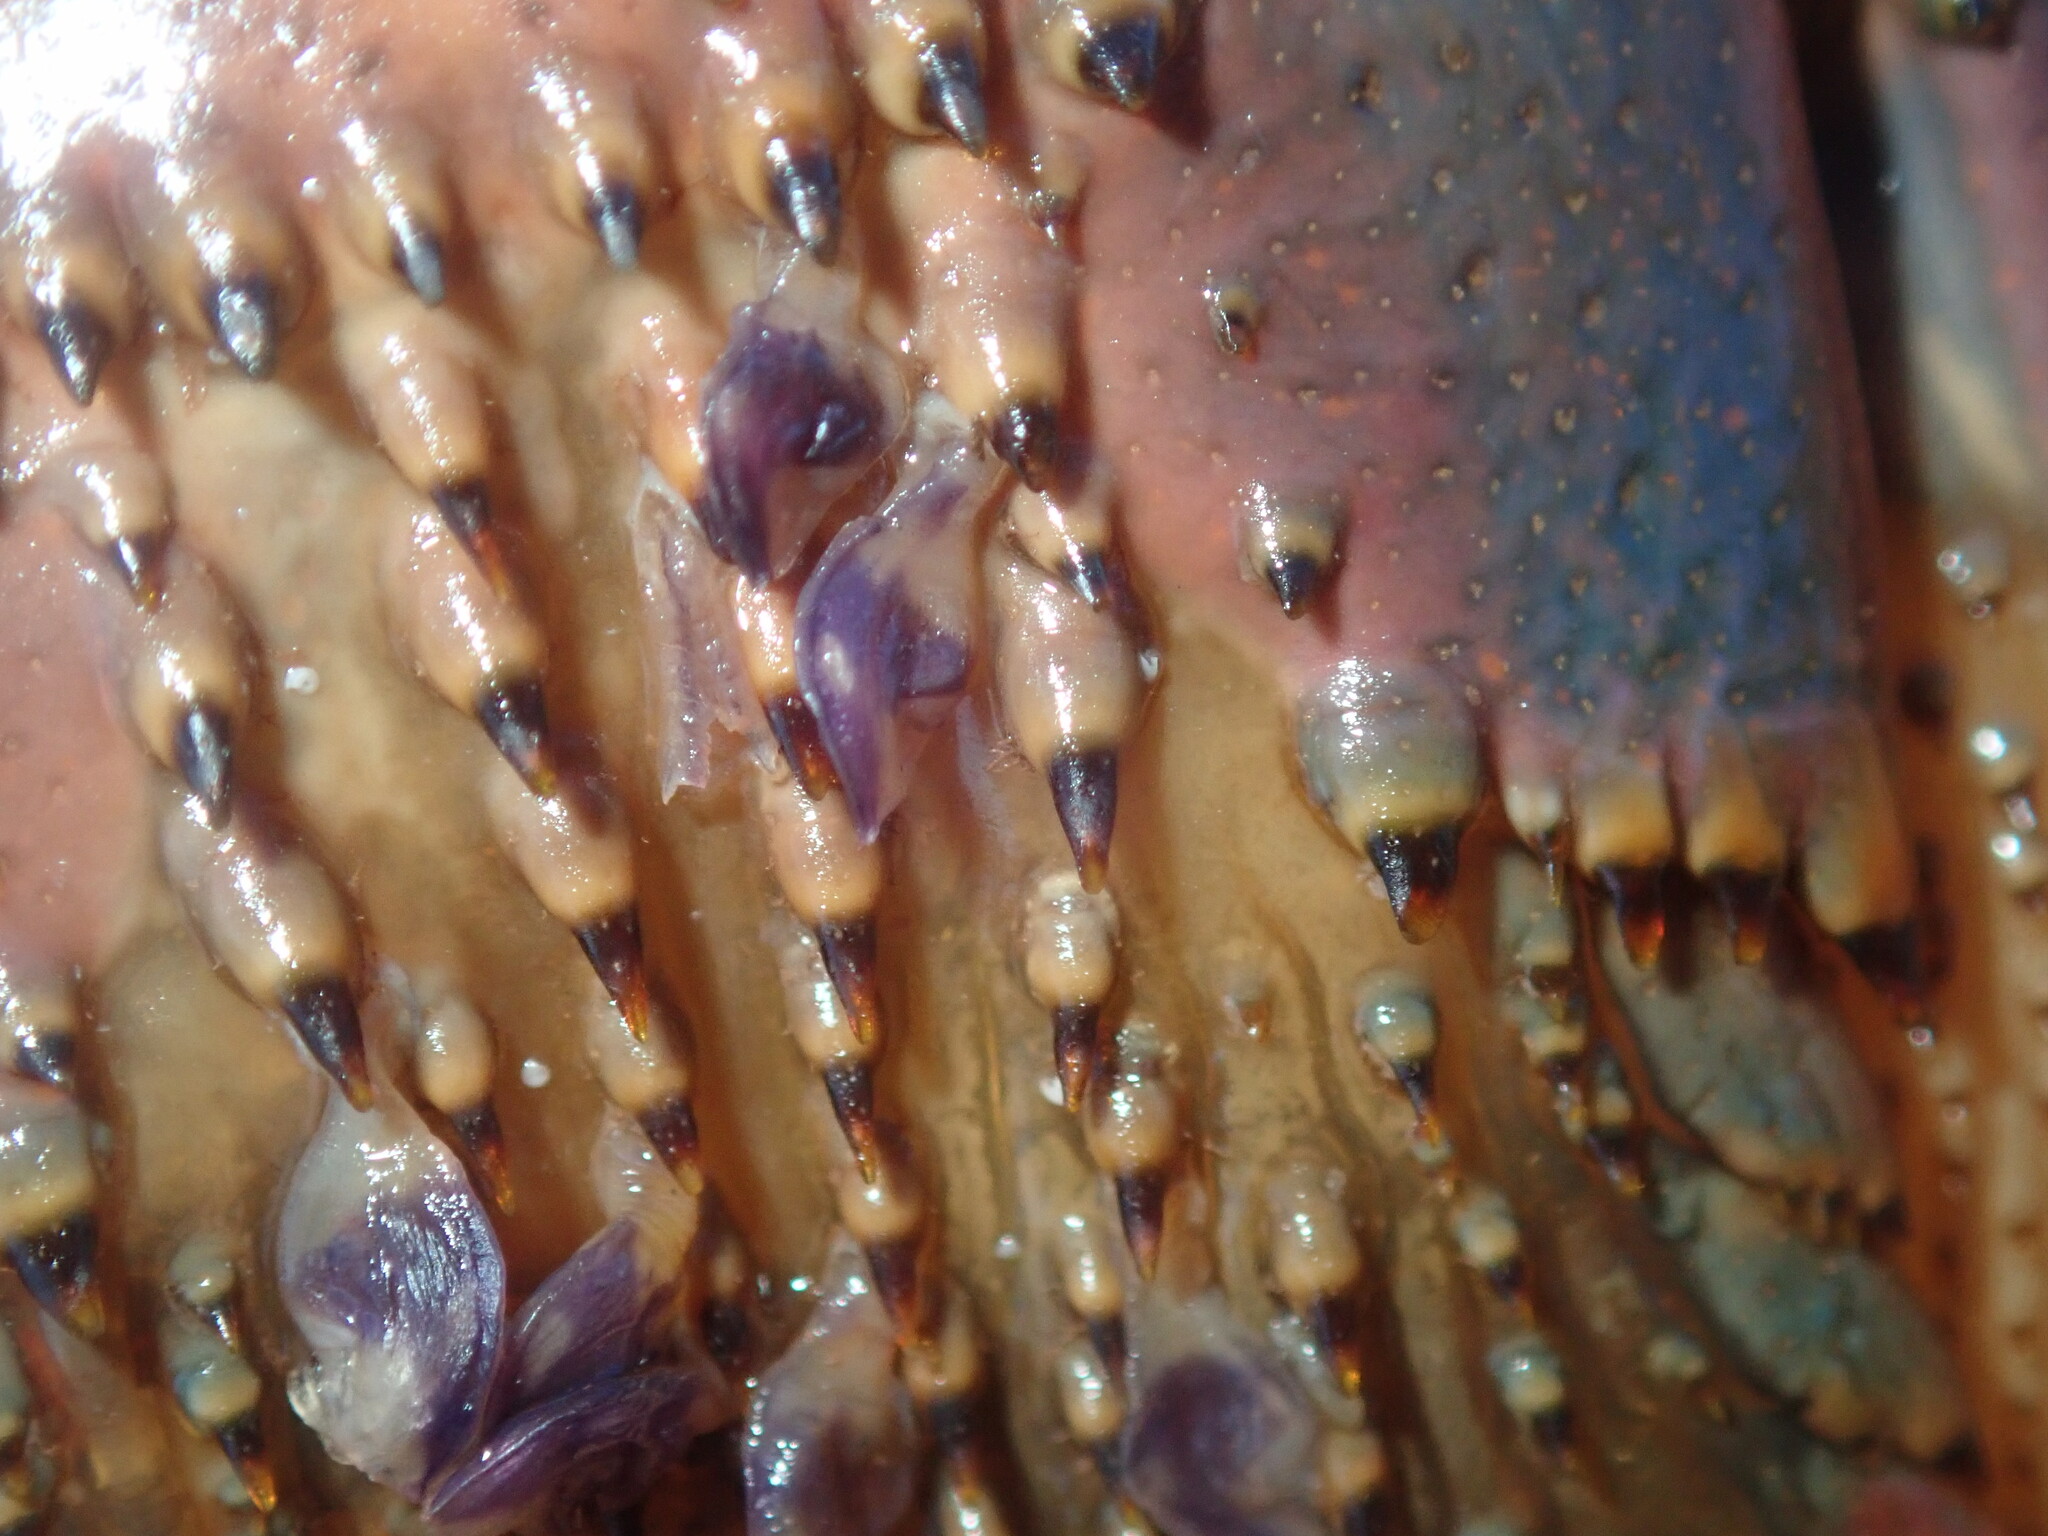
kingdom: Animalia
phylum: Arthropoda
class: Maxillopoda
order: Pedunculata
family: Heteralepadidae
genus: Paralepas
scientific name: Paralepas quadrata
